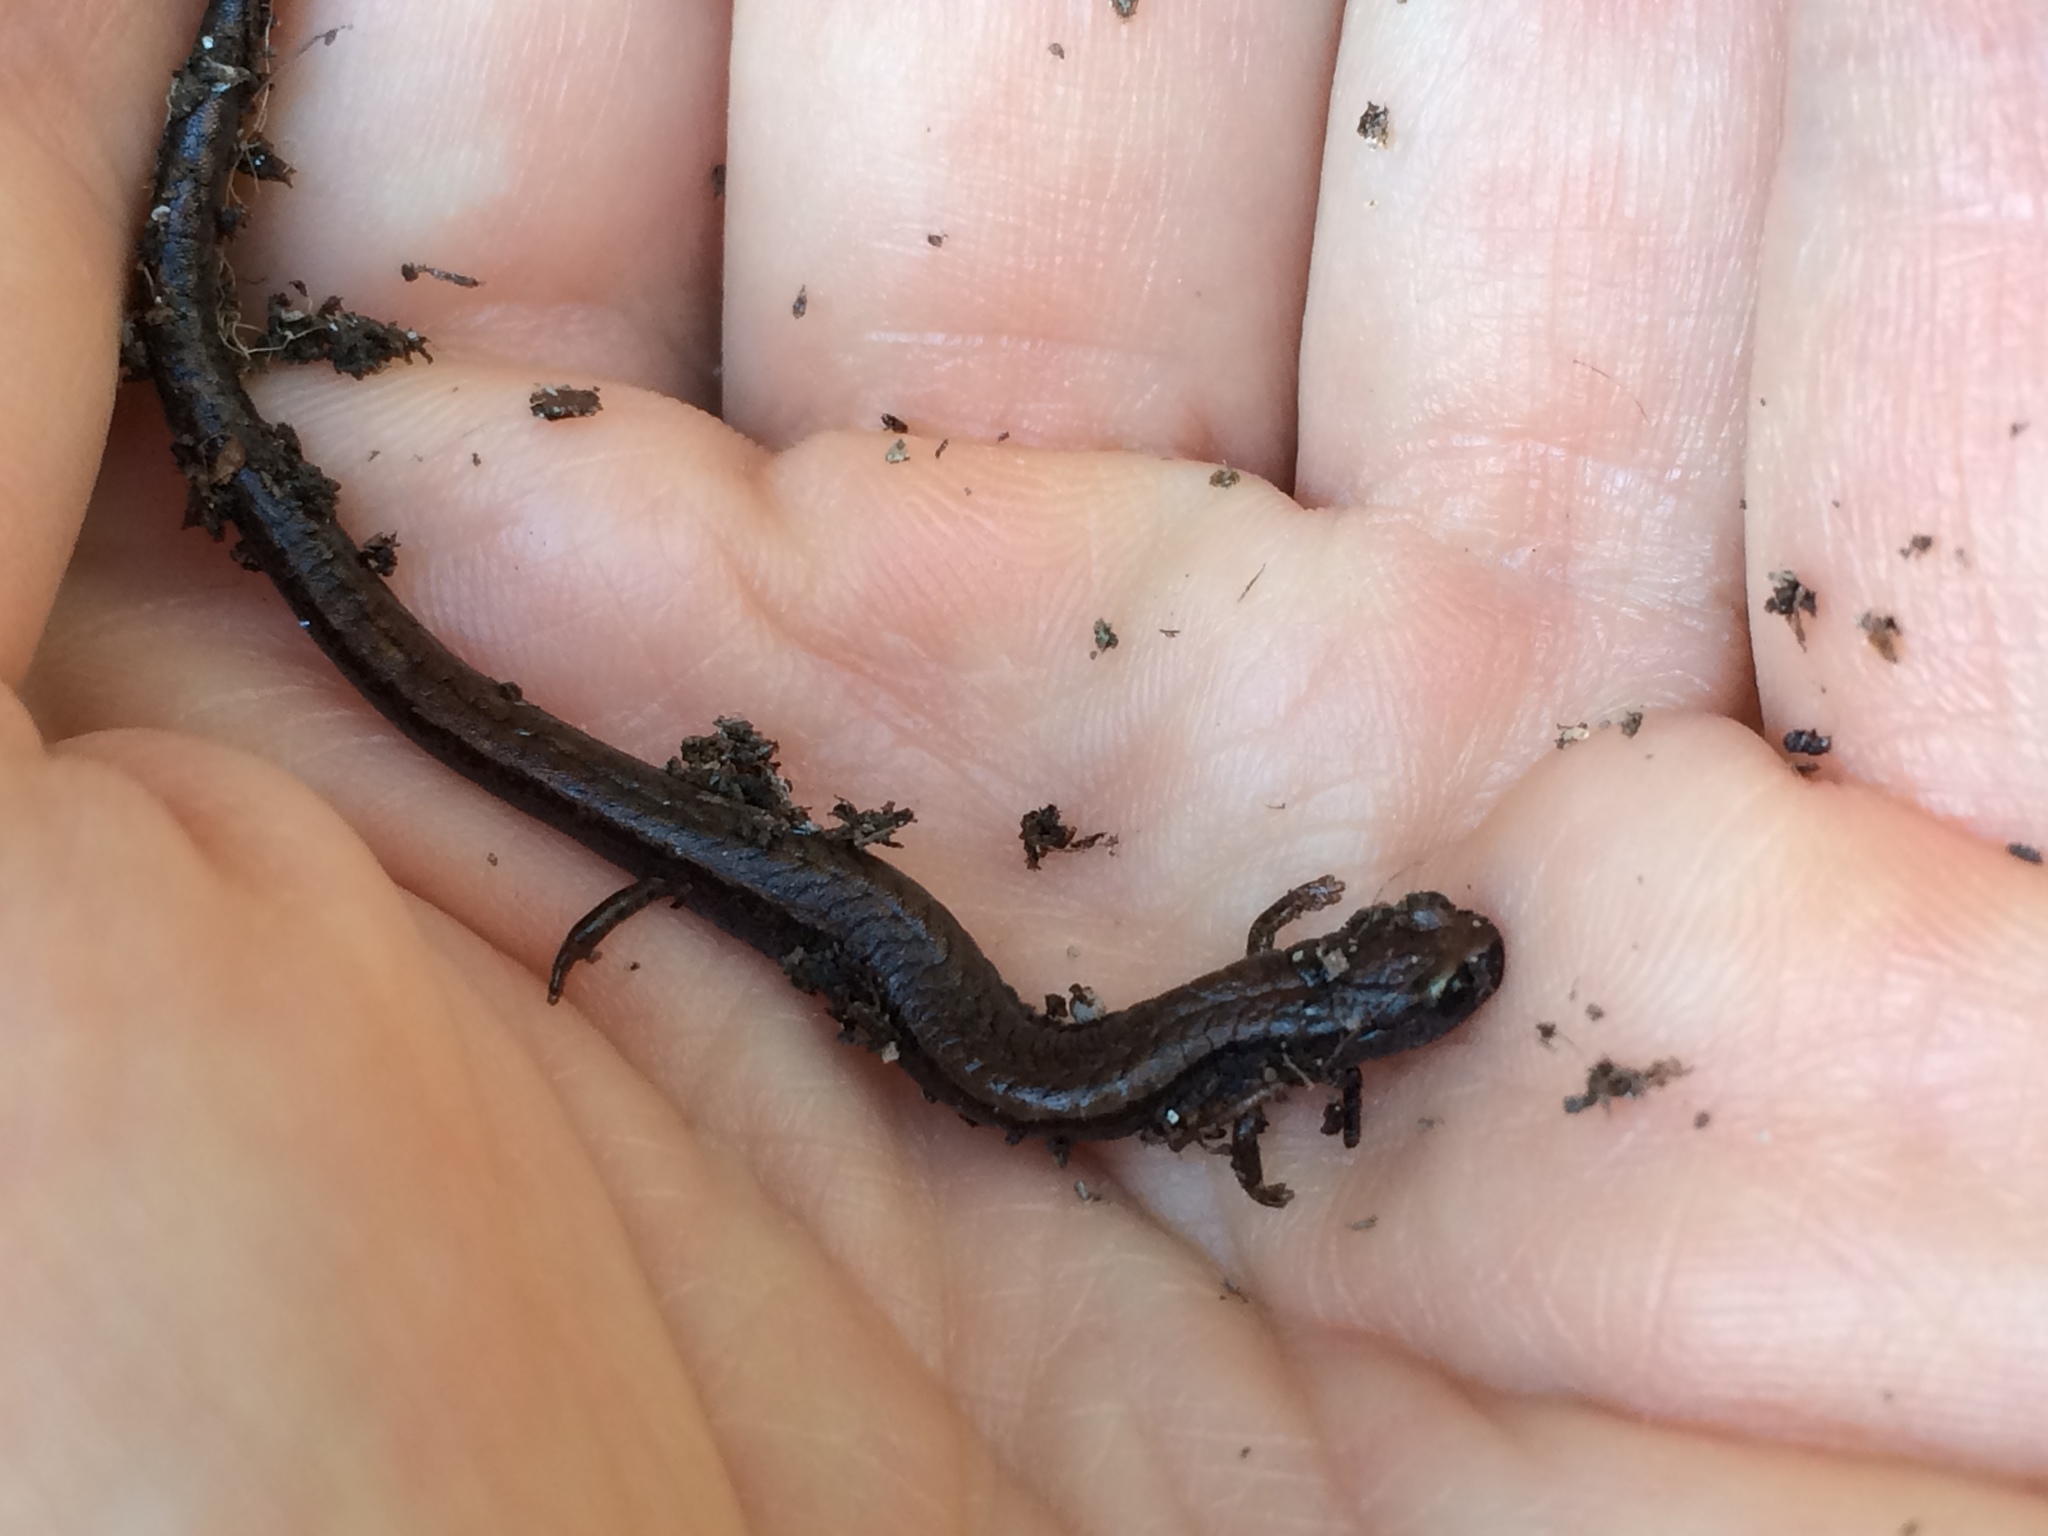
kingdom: Animalia
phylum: Chordata
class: Amphibia
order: Caudata
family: Plethodontidae
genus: Batrachoseps
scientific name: Batrachoseps attenuatus
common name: California slender salamander
